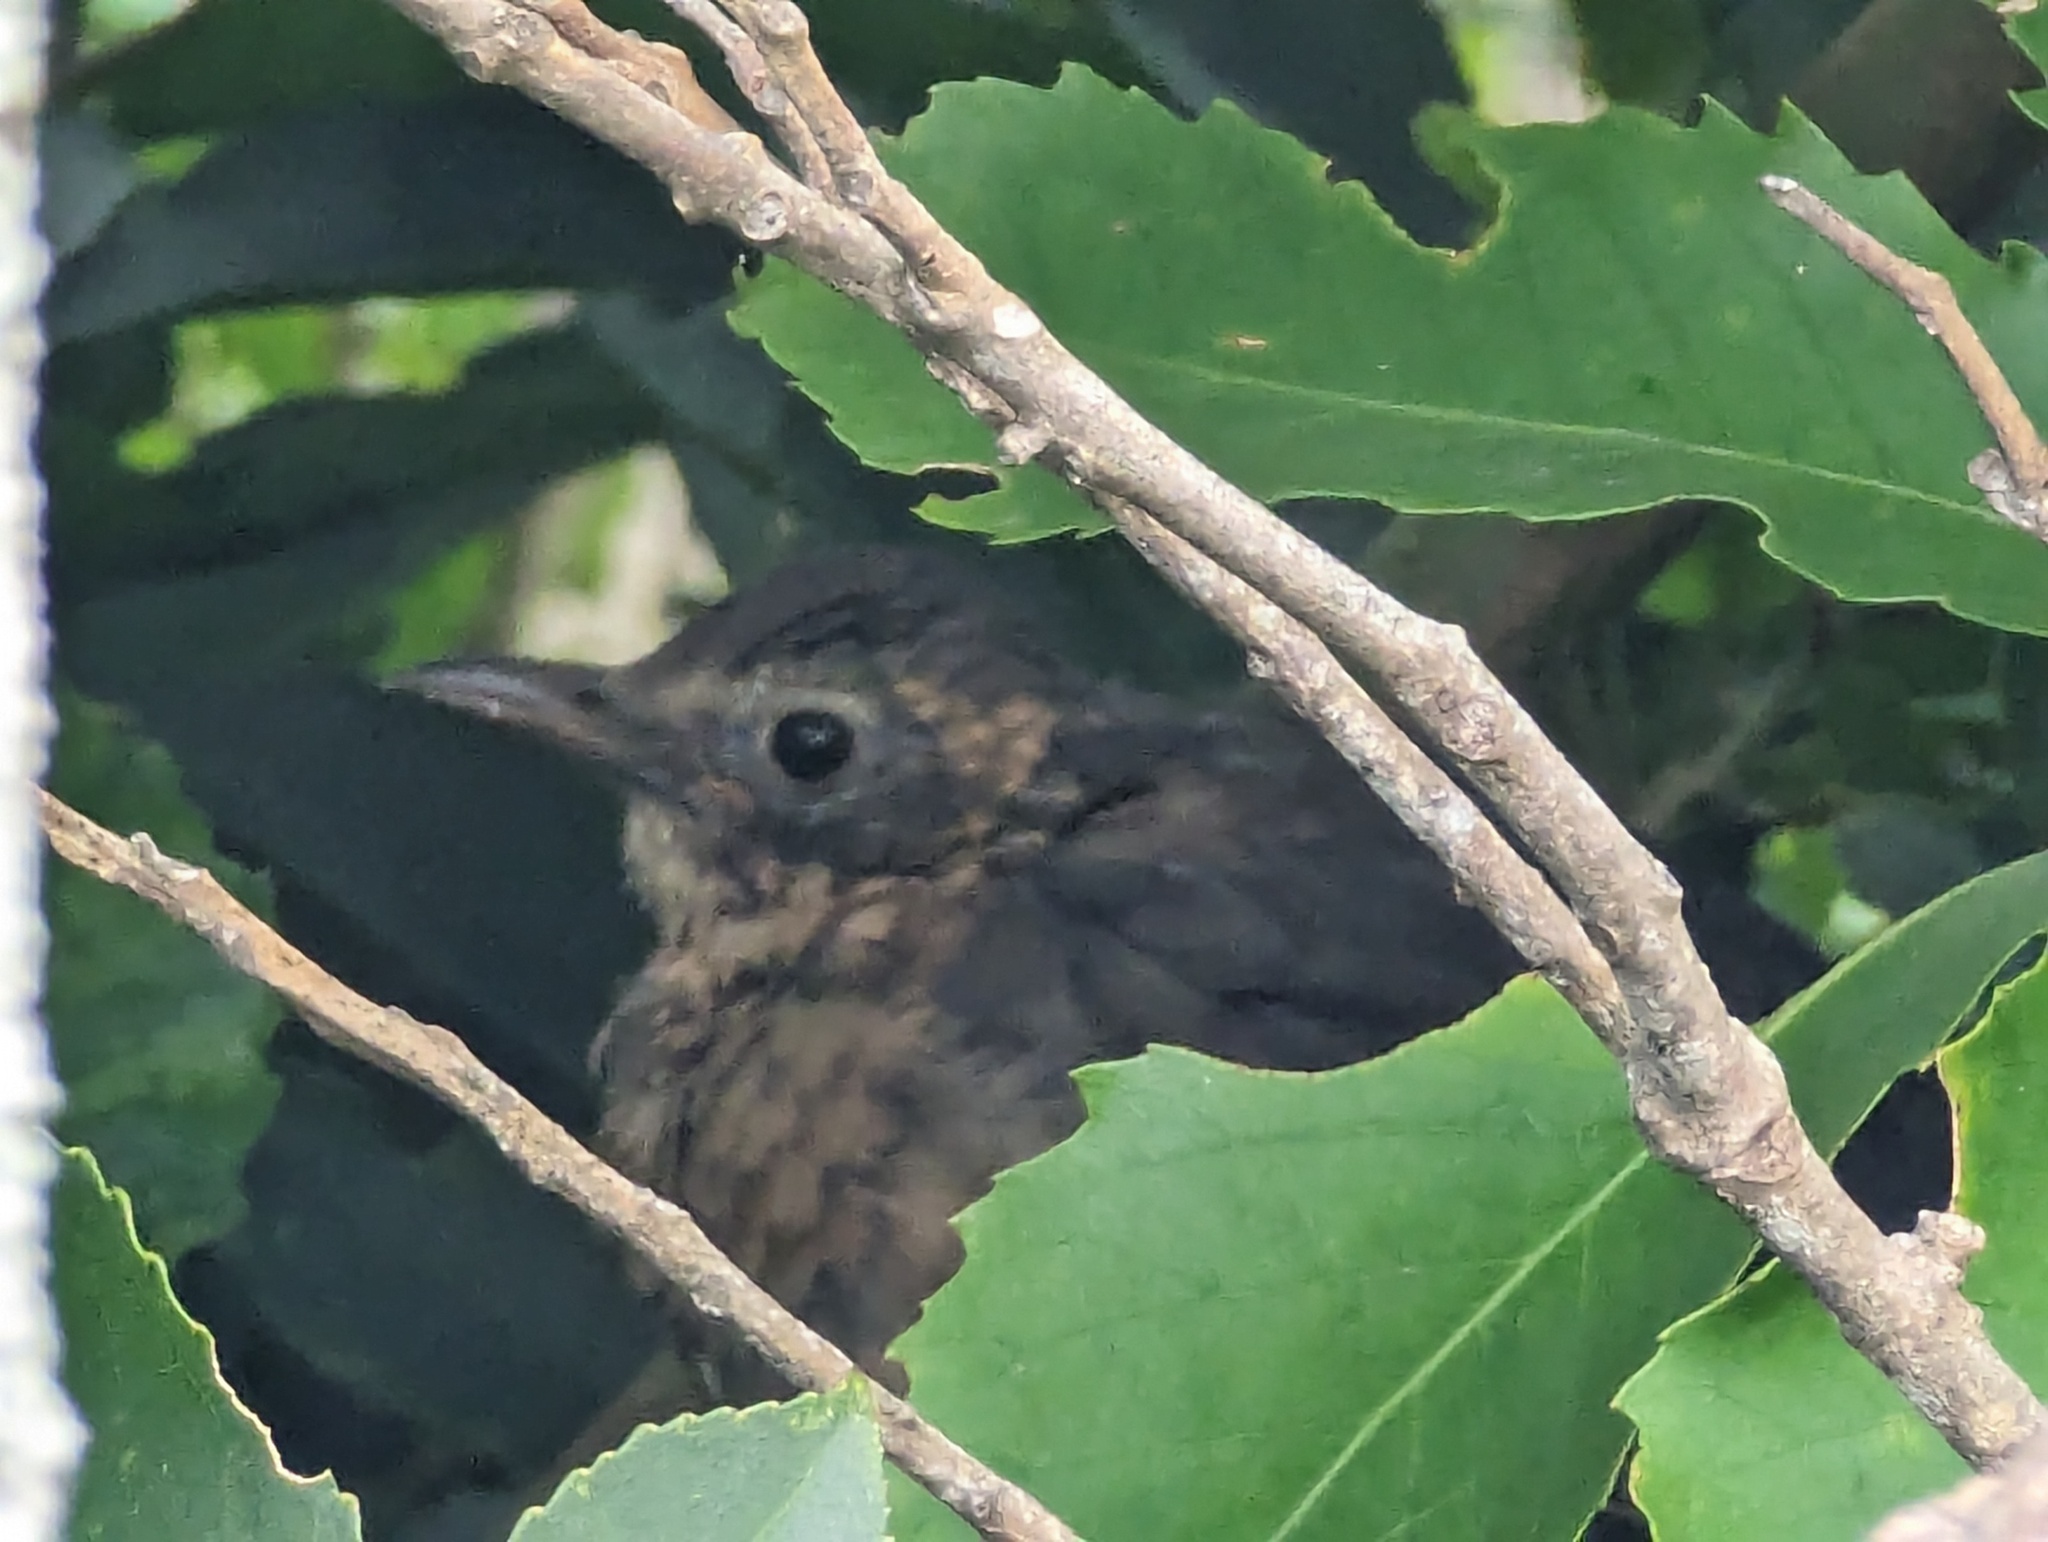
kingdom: Animalia
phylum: Chordata
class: Aves
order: Passeriformes
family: Turdidae
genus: Turdus
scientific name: Turdus merula
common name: Common blackbird
